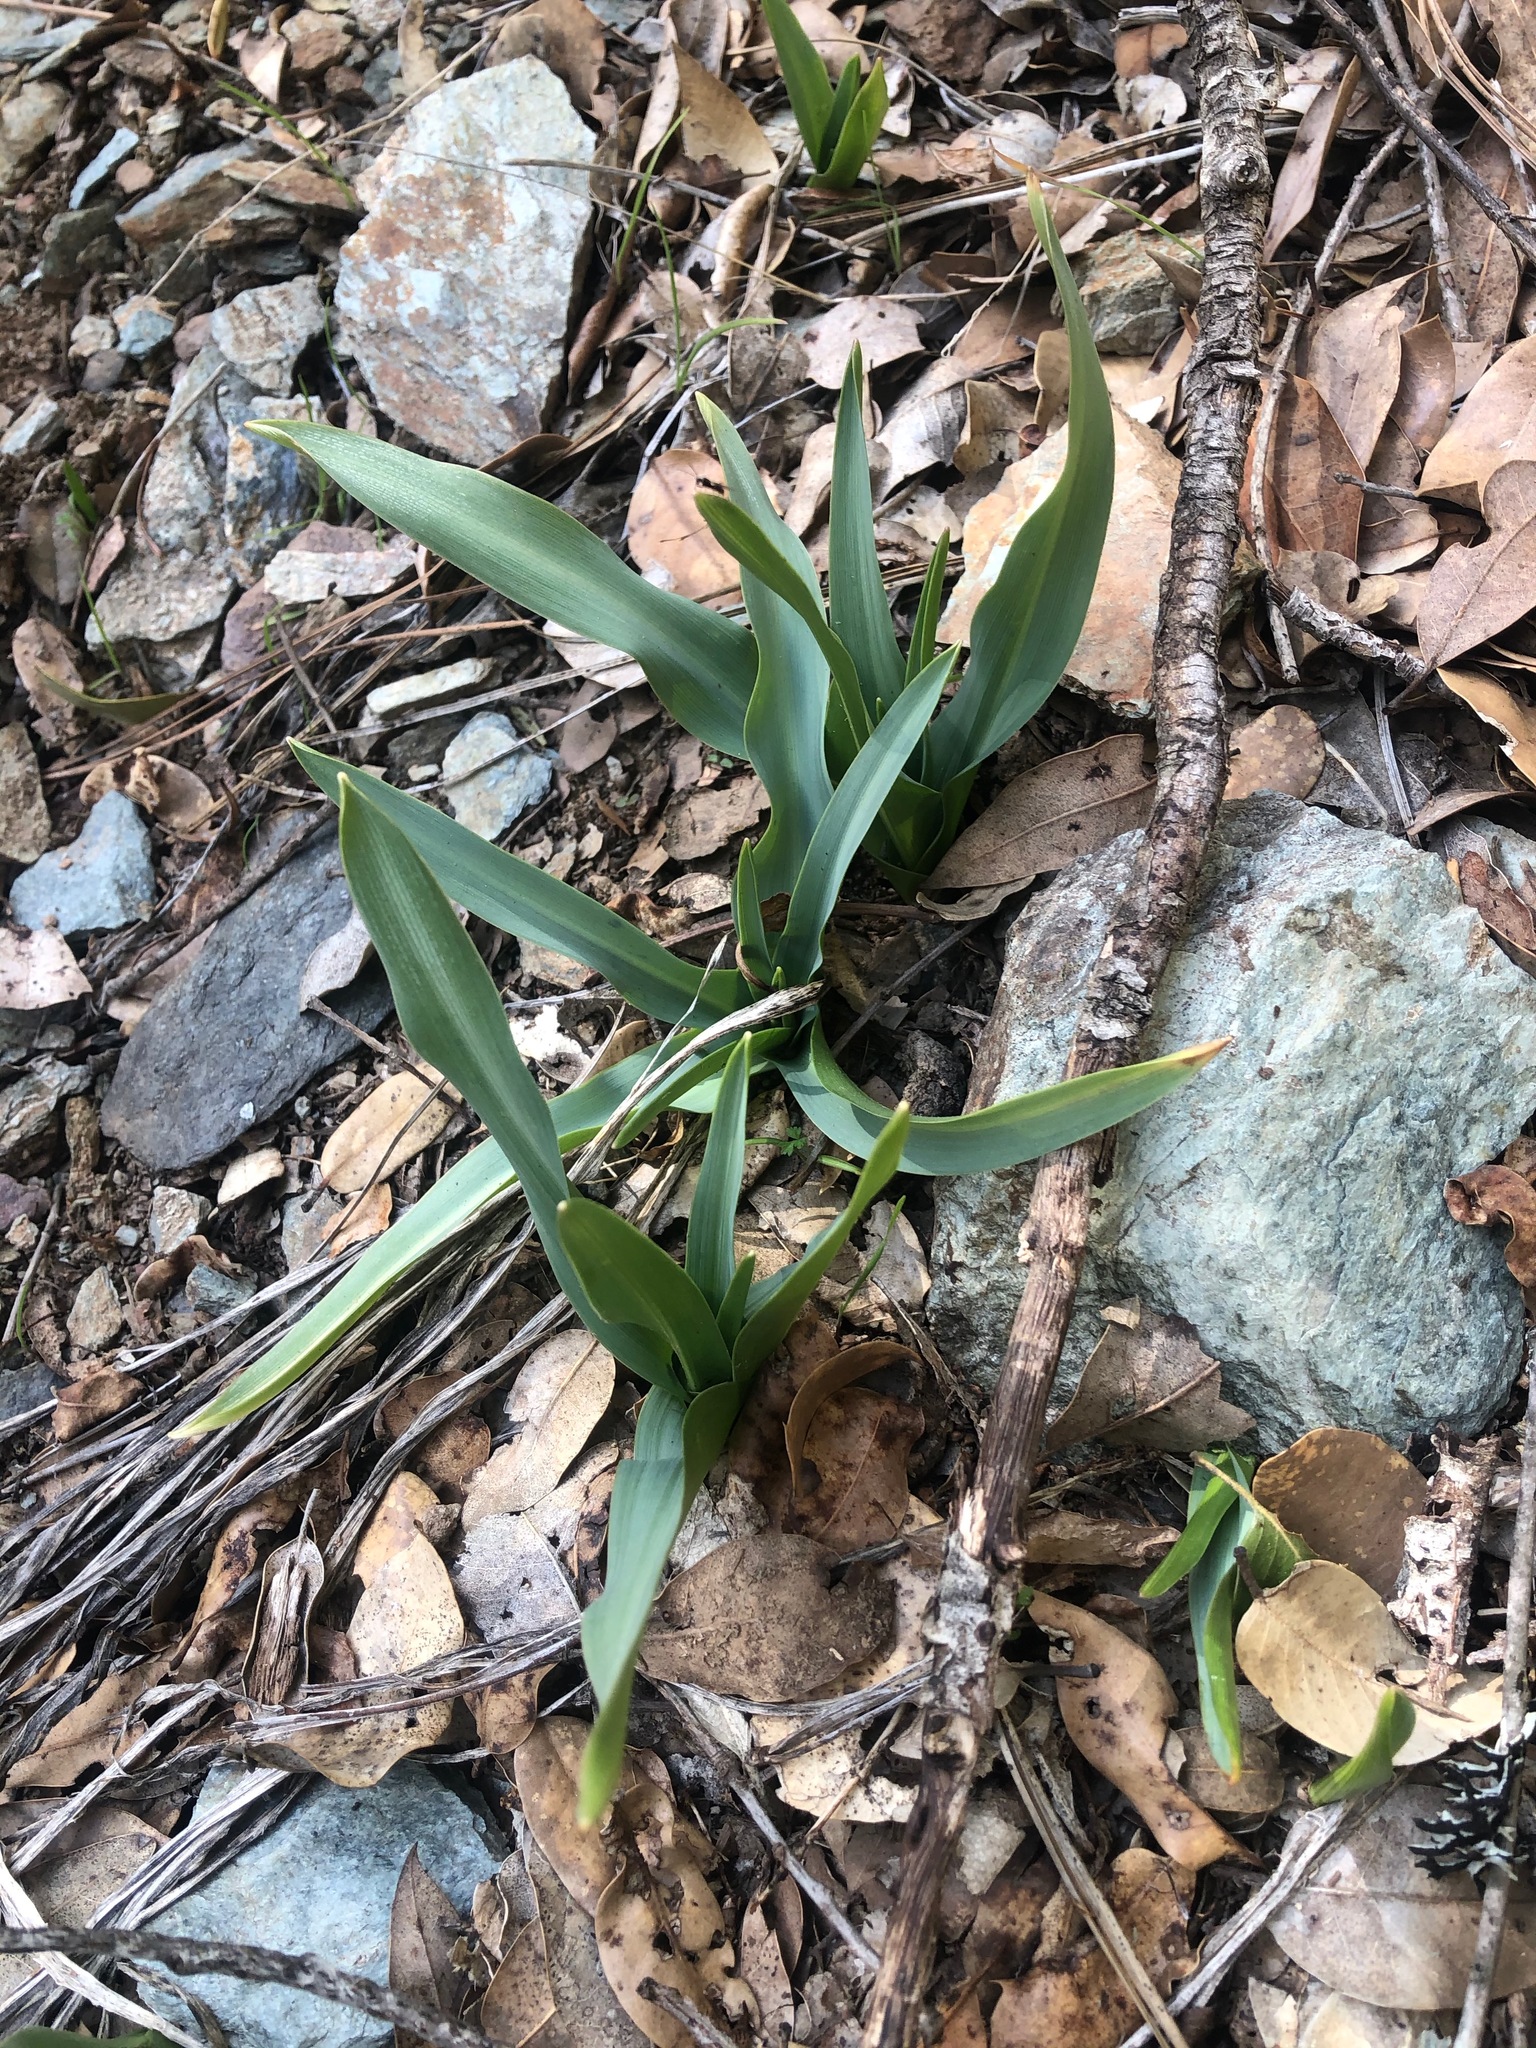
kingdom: Plantae
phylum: Tracheophyta
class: Liliopsida
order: Asparagales
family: Asparagaceae
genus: Chlorogalum
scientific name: Chlorogalum pomeridianum
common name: Amole
